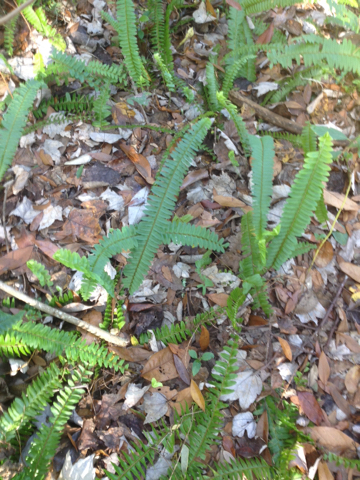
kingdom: Plantae
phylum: Tracheophyta
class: Polypodiopsida
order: Polypodiales
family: Nephrolepidaceae
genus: Nephrolepis
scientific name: Nephrolepis cordifolia
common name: Narrow swordfern
